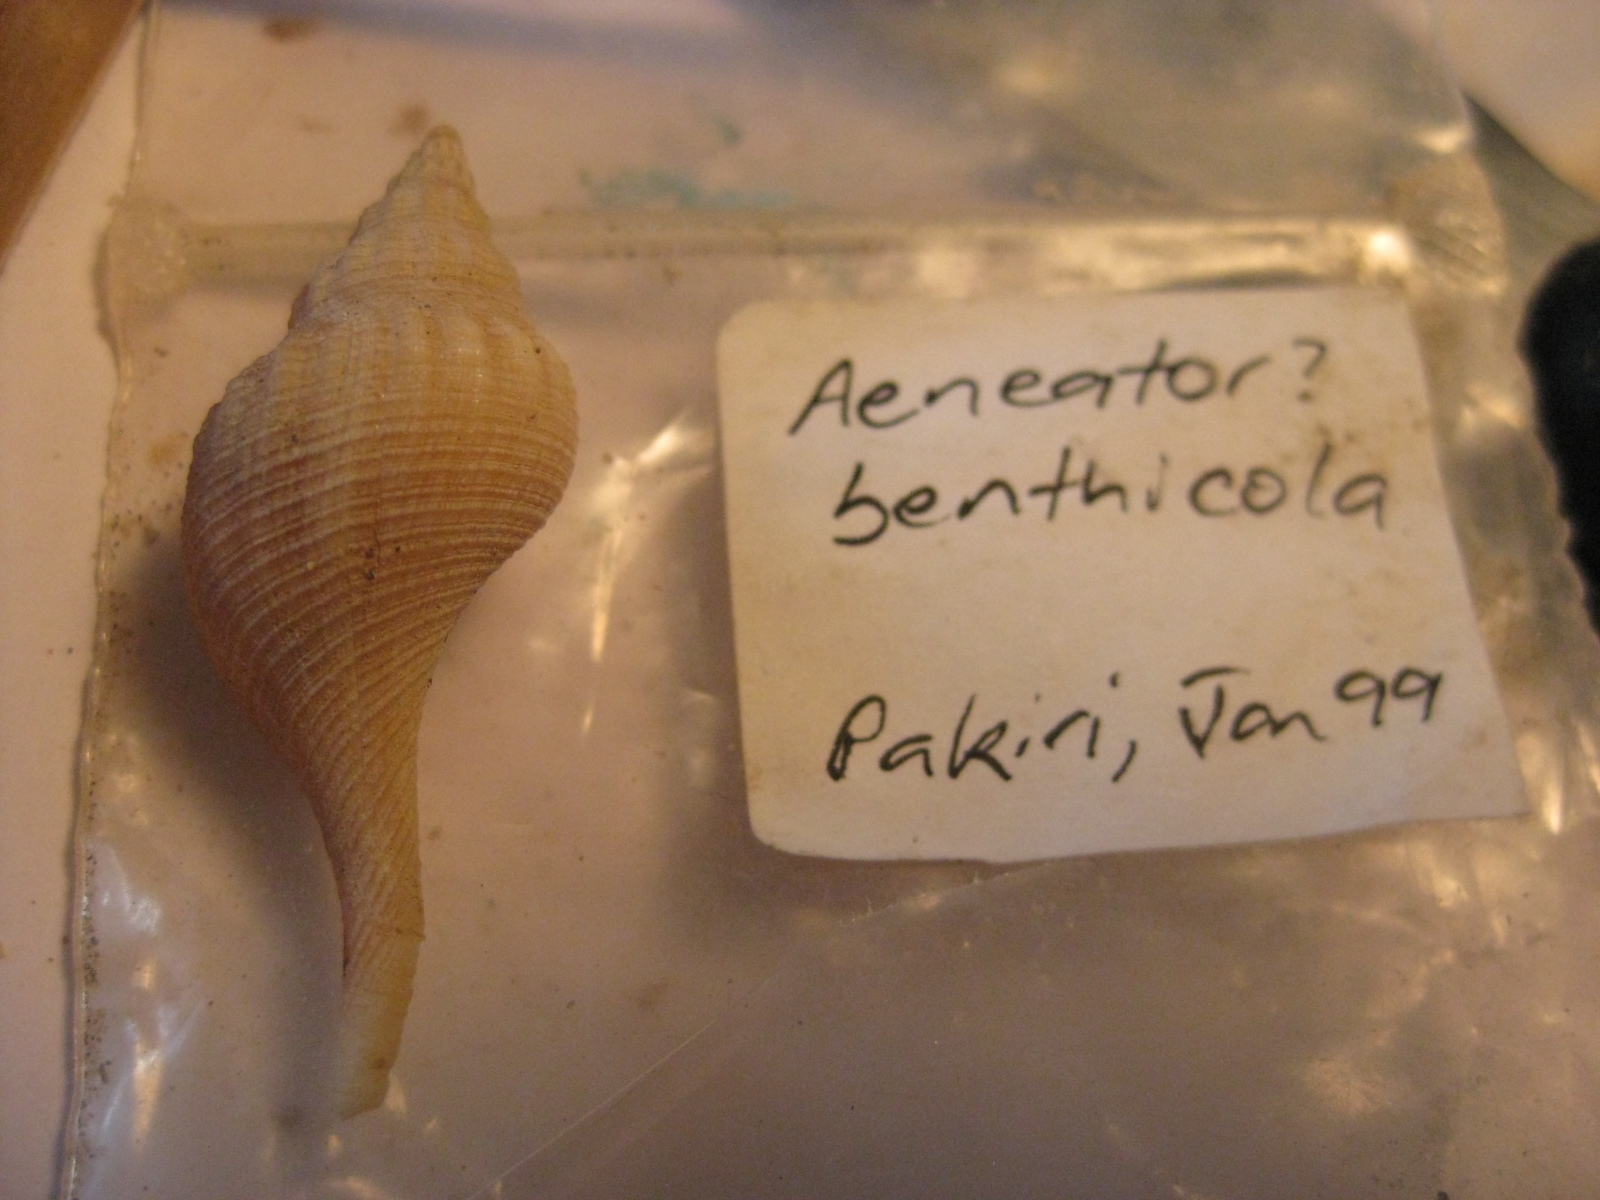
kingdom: Animalia
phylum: Mollusca
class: Gastropoda
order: Neogastropoda
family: Tudiclidae
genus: Aeneator
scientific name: Aeneator marshalli
